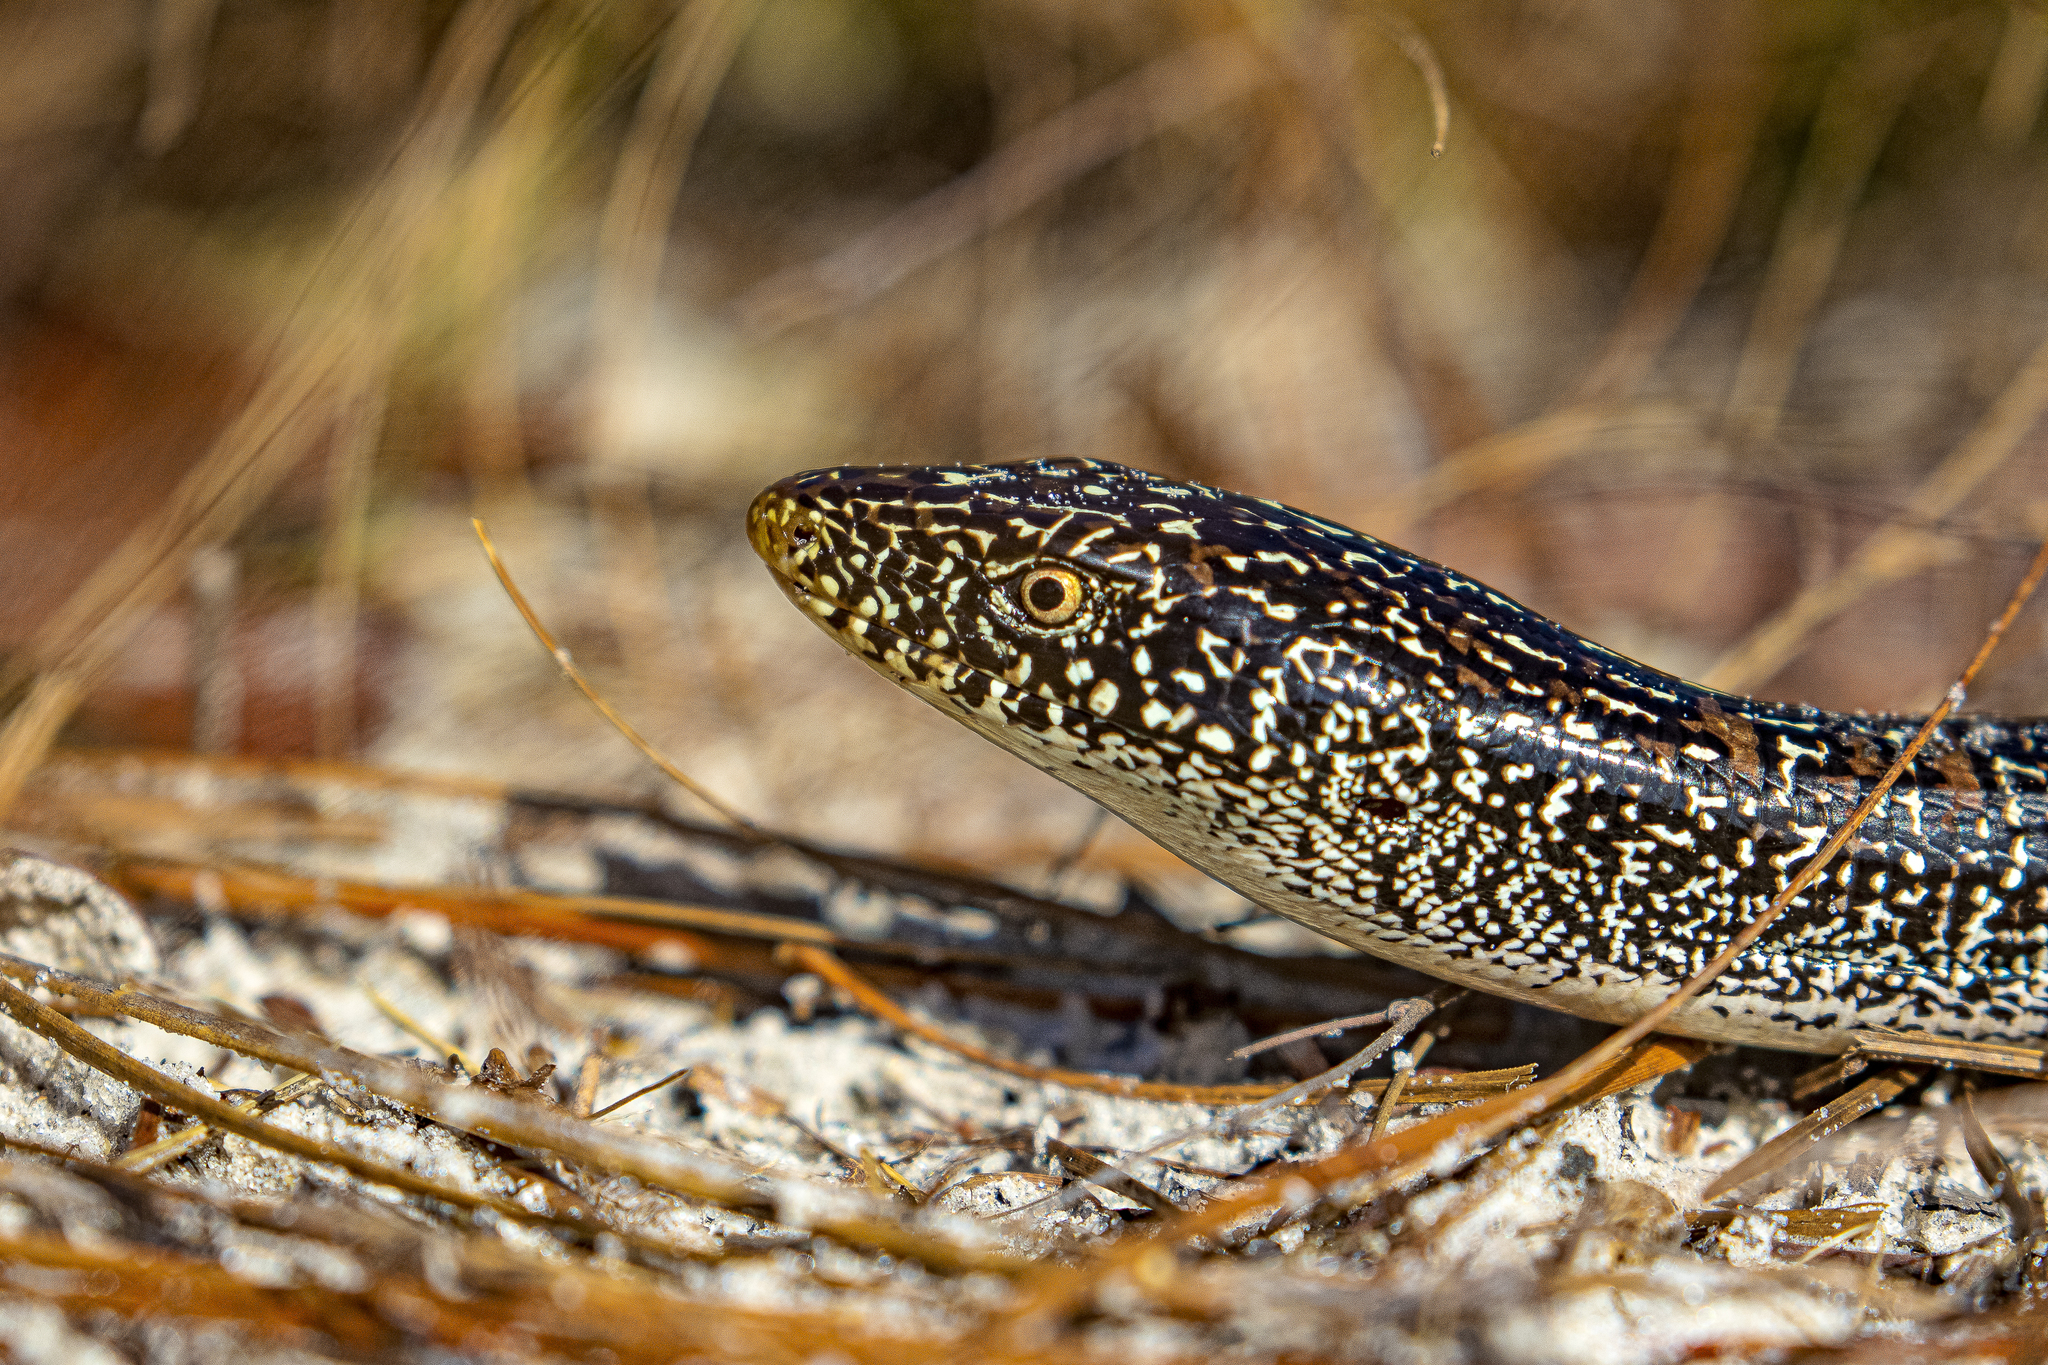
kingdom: Animalia
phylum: Chordata
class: Squamata
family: Anguidae
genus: Ophisaurus
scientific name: Ophisaurus attenuatus
